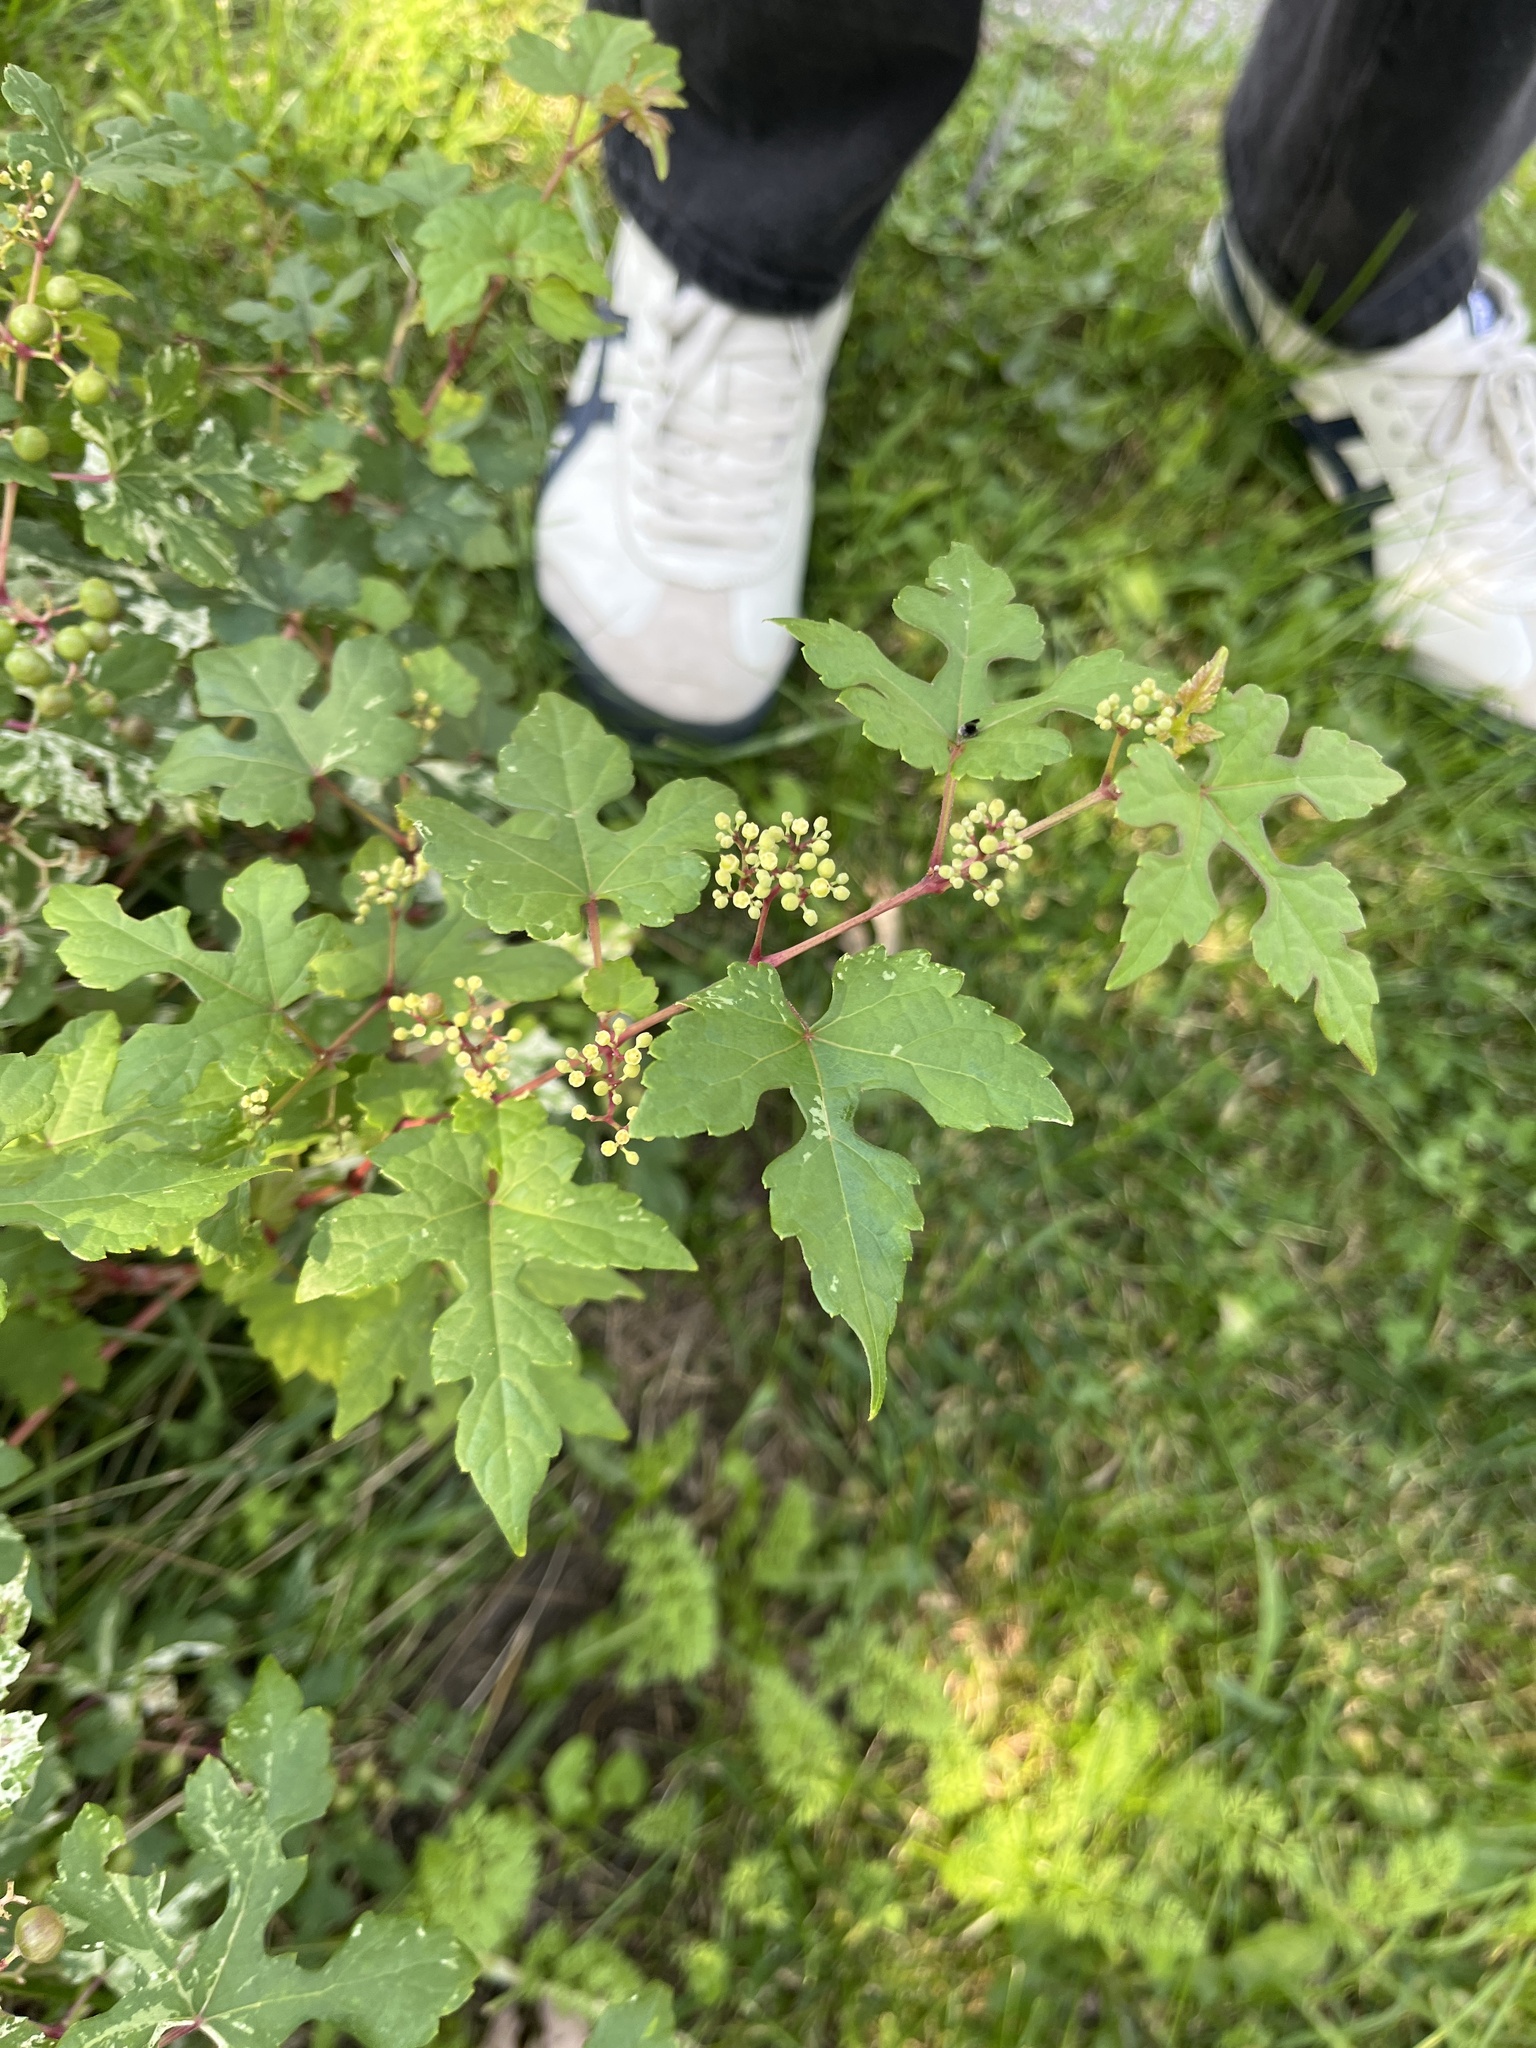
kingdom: Plantae
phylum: Tracheophyta
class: Magnoliopsida
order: Vitales
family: Vitaceae
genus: Ampelopsis
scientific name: Ampelopsis glandulosa
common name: Amur peppervine
